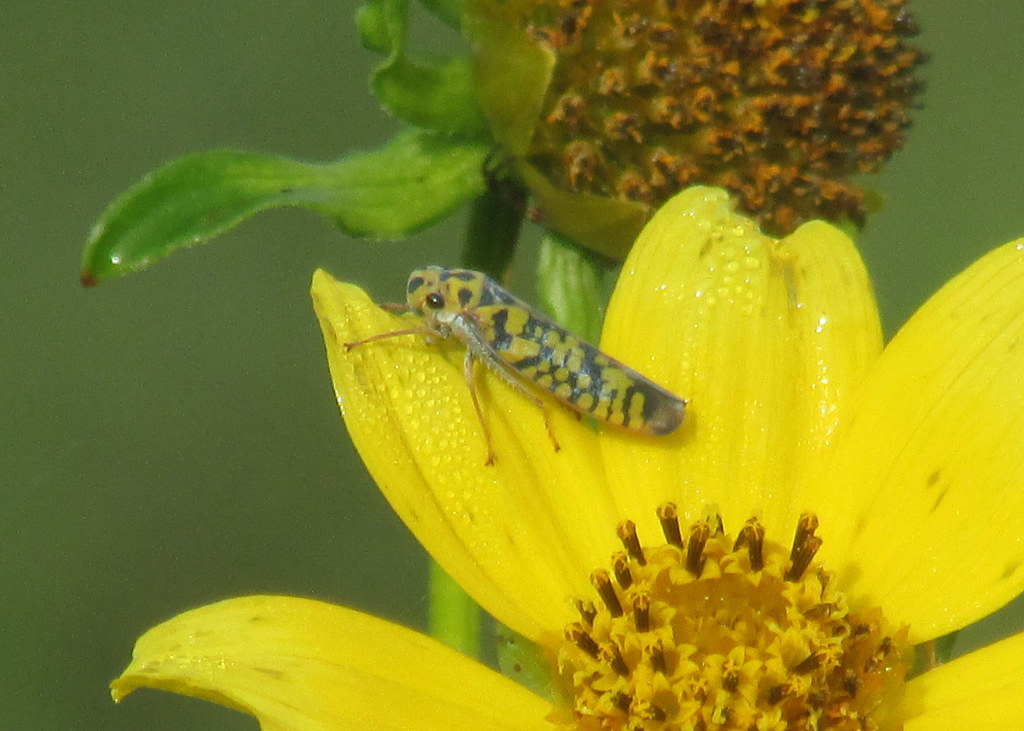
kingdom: Animalia
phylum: Arthropoda
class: Insecta
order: Hemiptera
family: Cicadellidae
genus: Pawiloma
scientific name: Pawiloma victima
